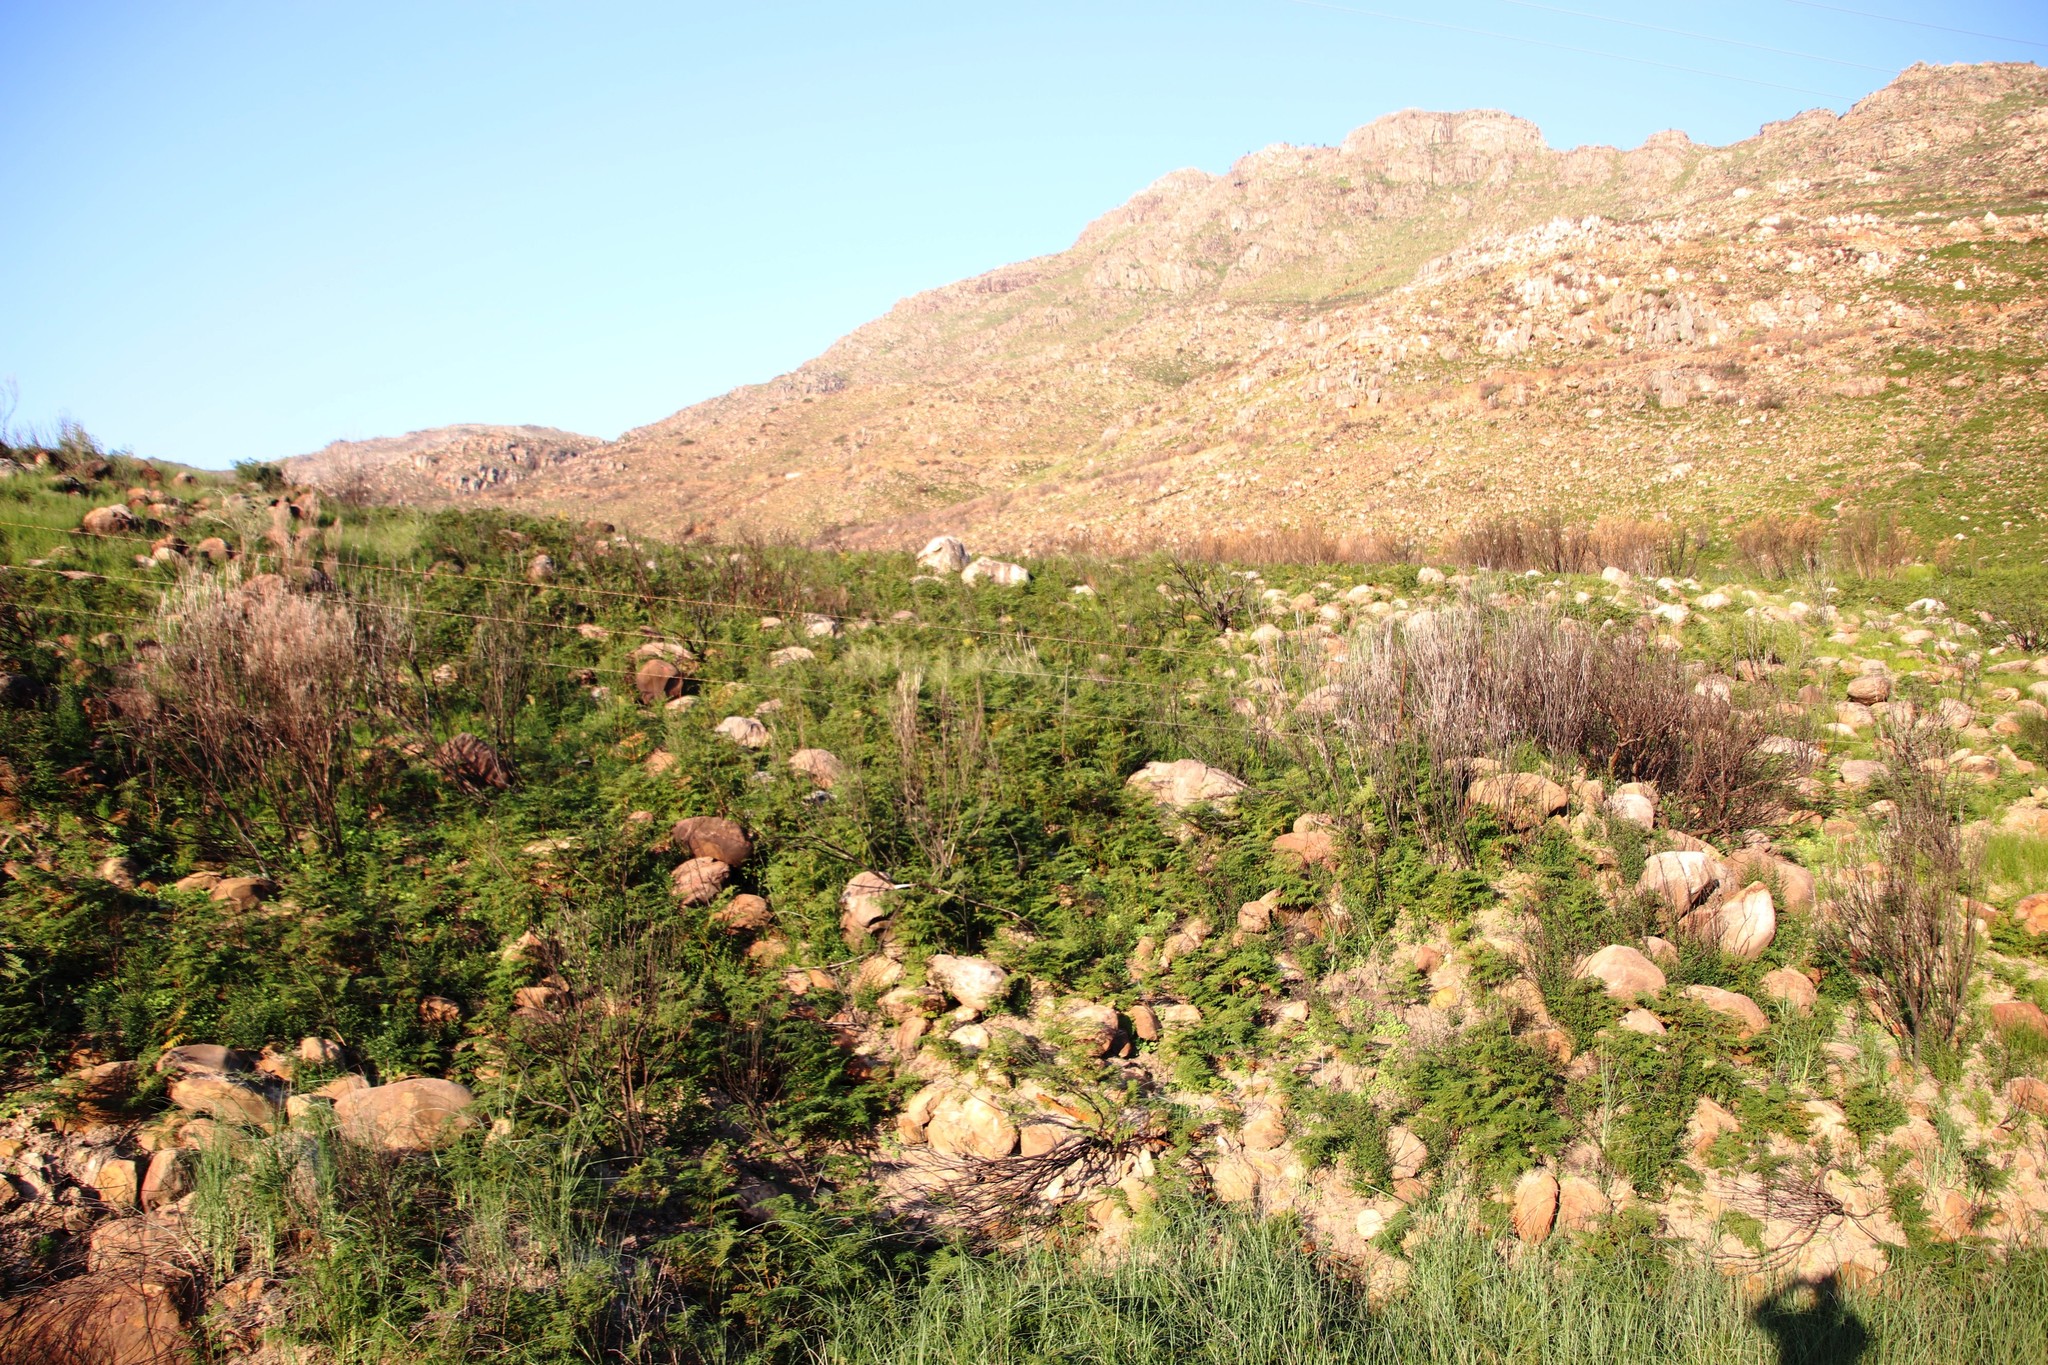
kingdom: Plantae
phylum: Tracheophyta
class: Polypodiopsida
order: Polypodiales
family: Dennstaedtiaceae
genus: Pteridium
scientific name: Pteridium aquilinum
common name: Bracken
